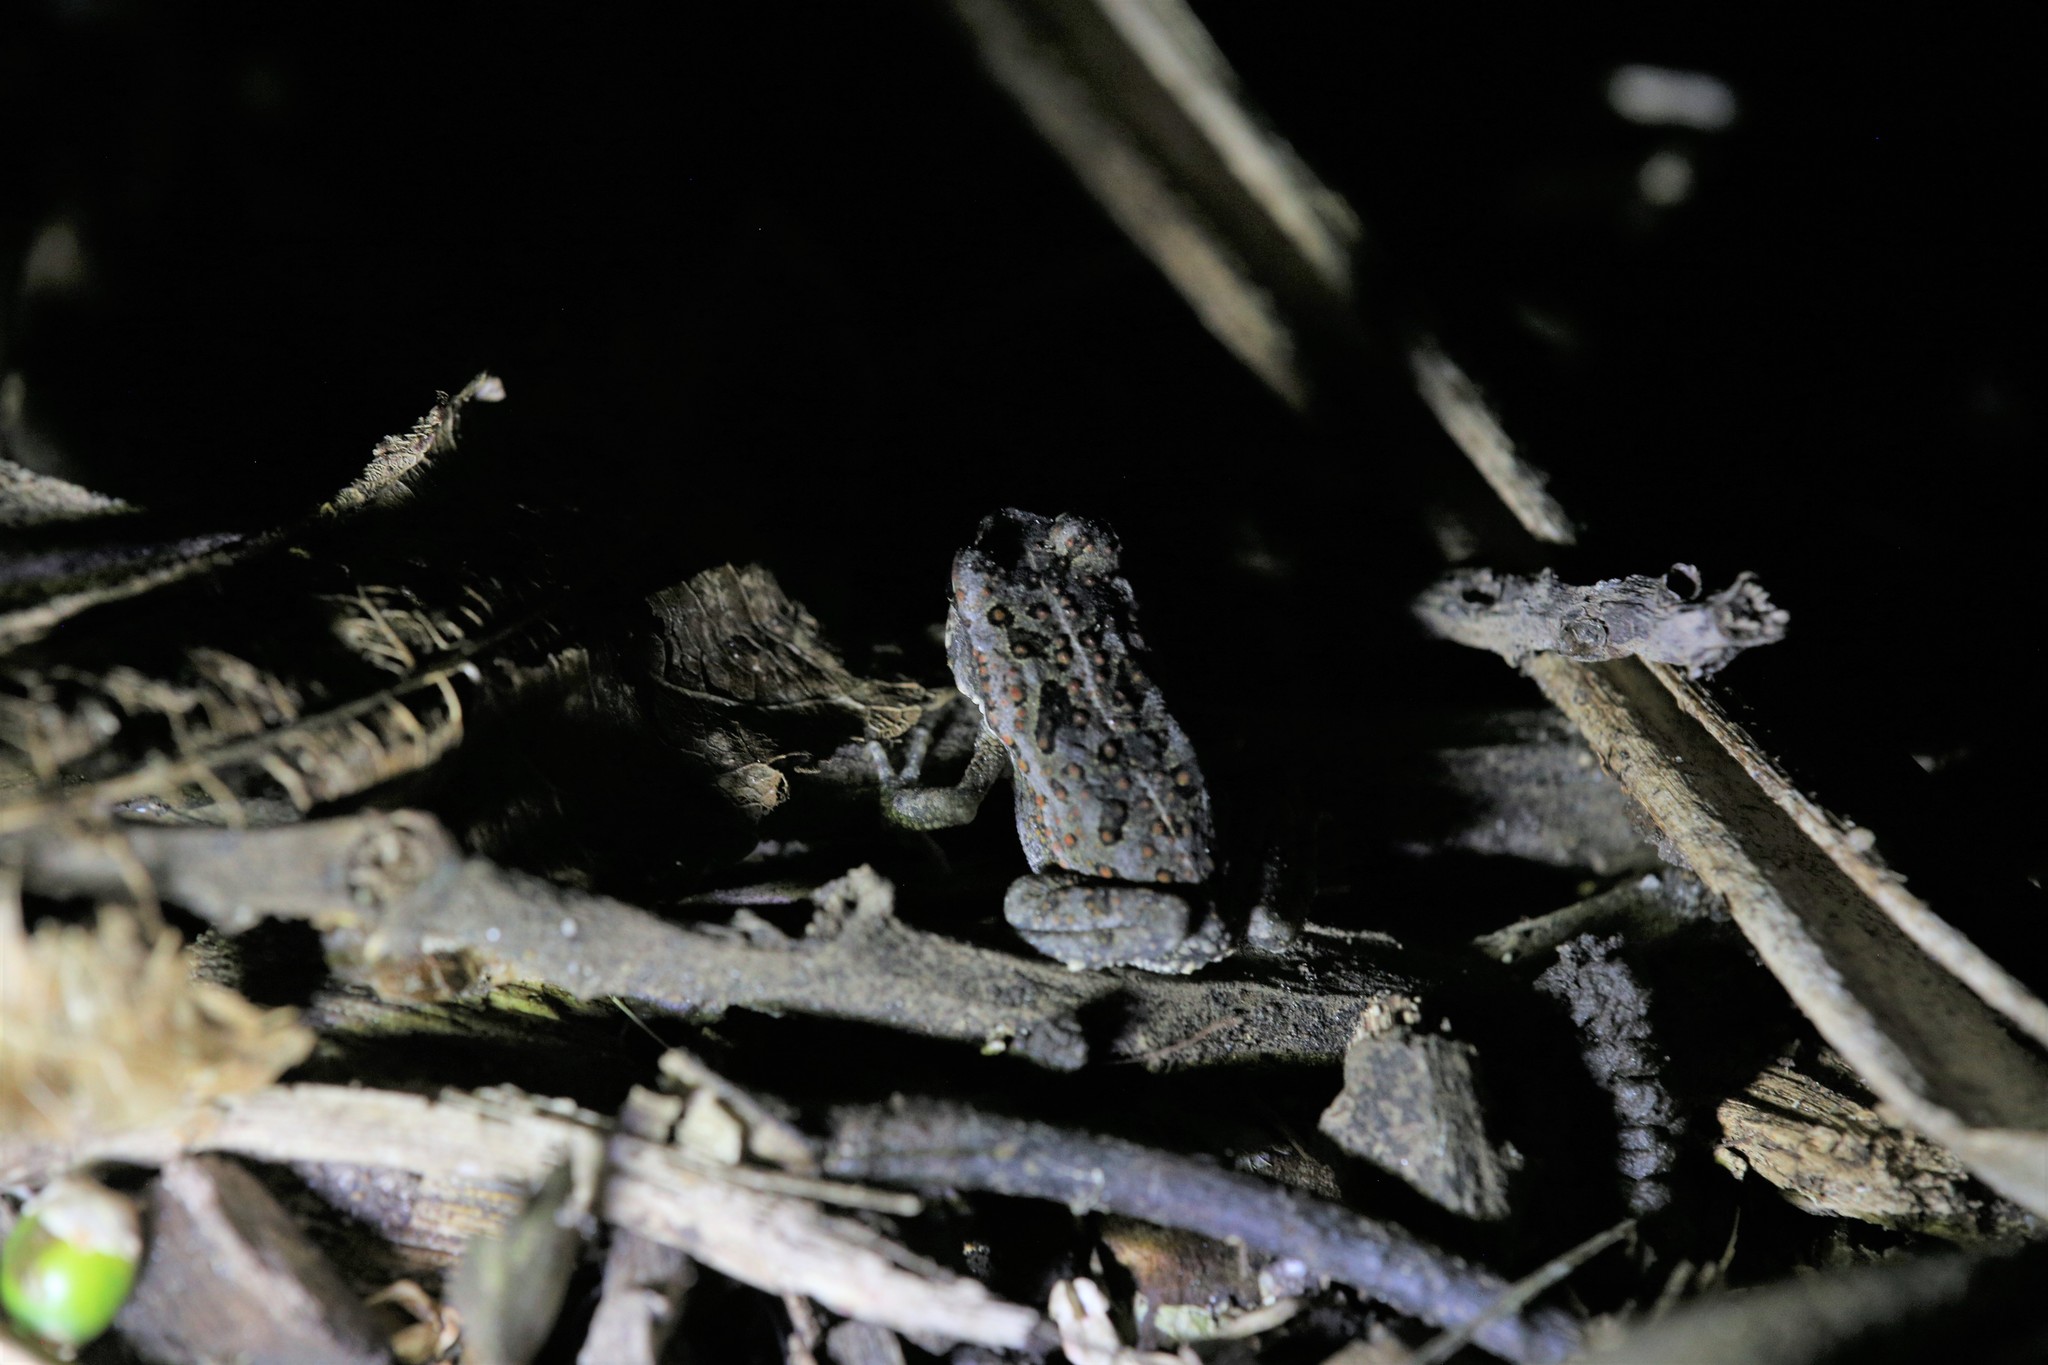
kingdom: Animalia
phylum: Chordata
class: Amphibia
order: Anura
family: Bufonidae
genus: Rhinella
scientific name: Rhinella marina
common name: Cane toad
